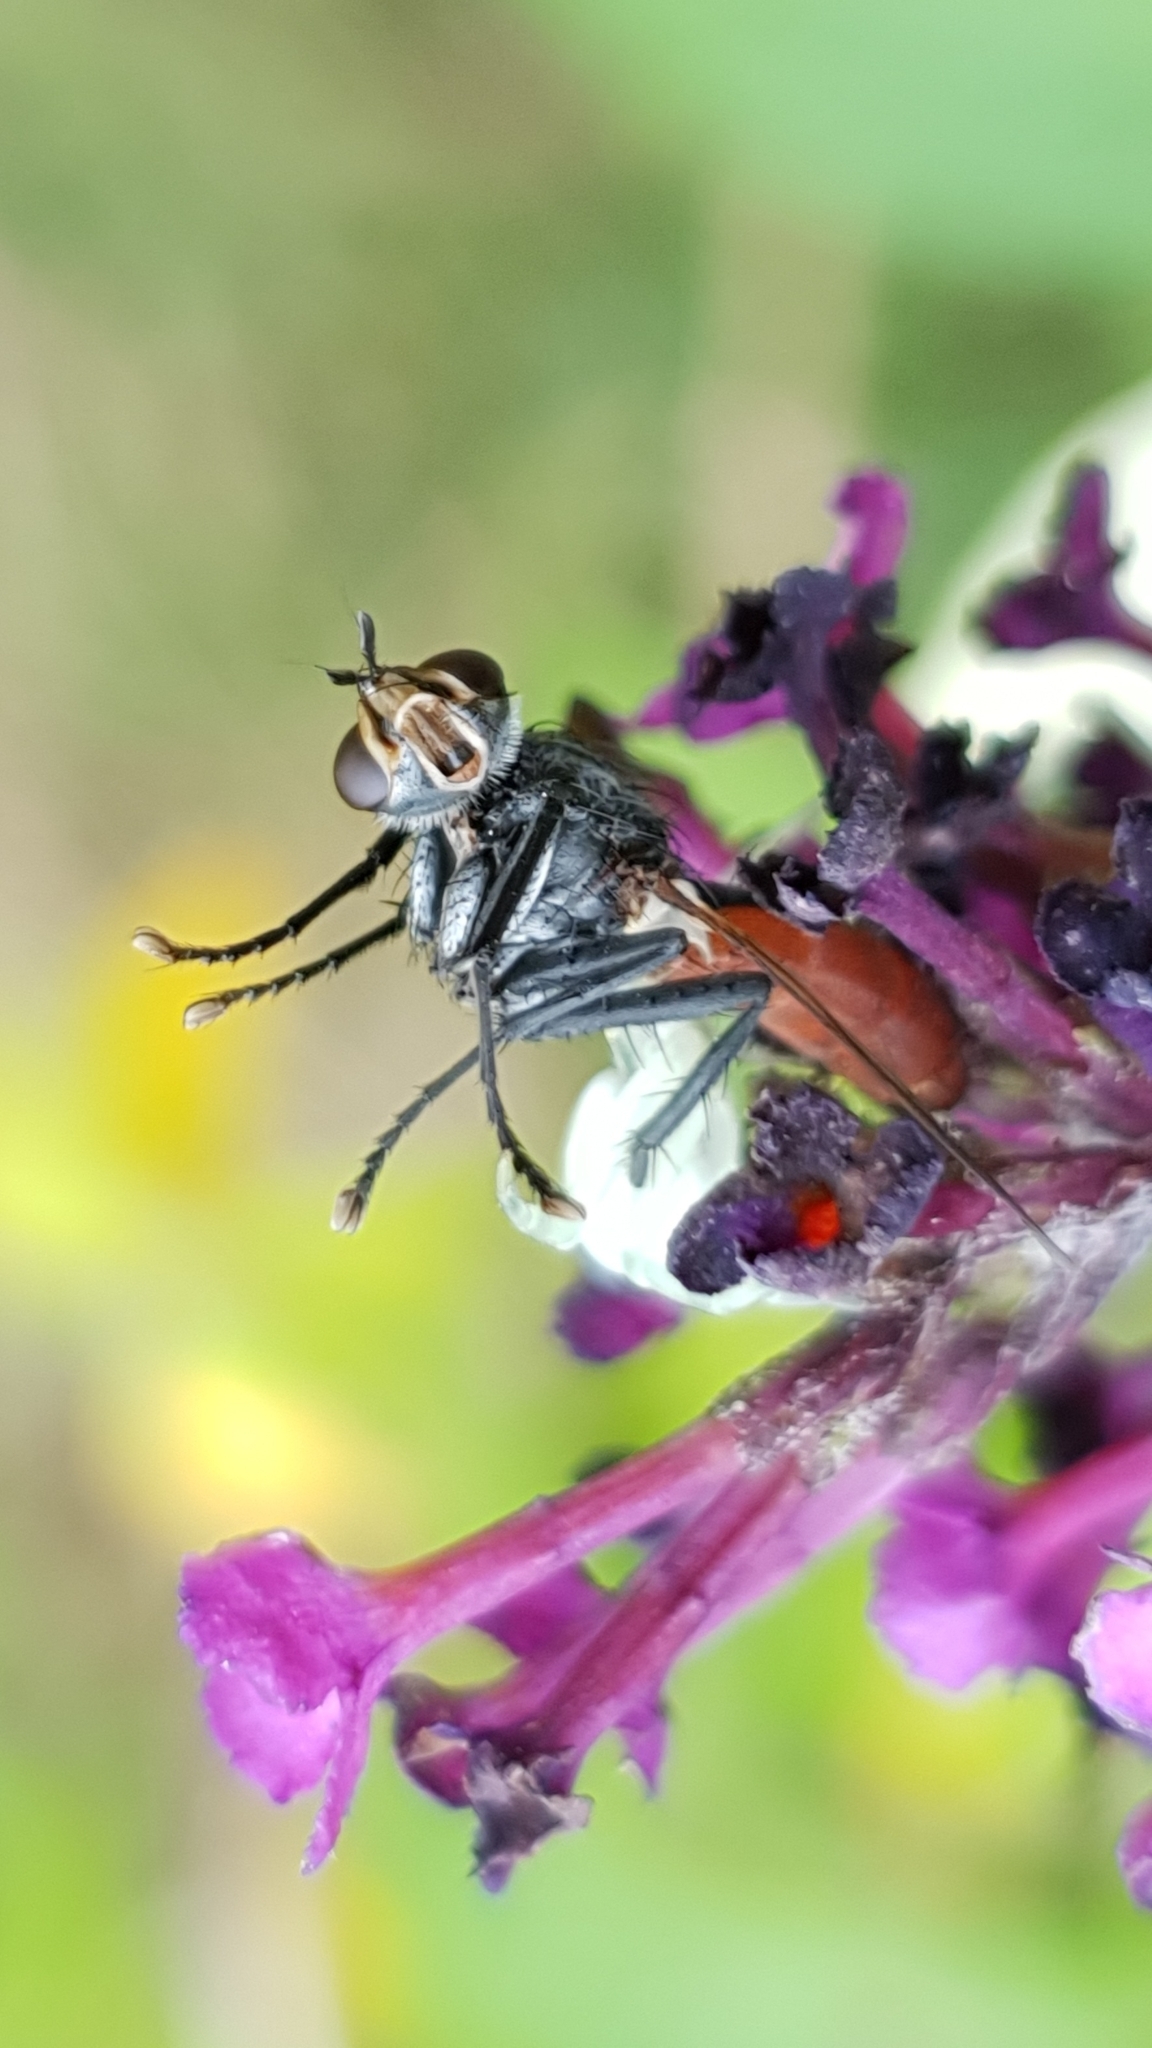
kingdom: Animalia
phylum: Arthropoda
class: Insecta
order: Diptera
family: Tachinidae
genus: Cylindromyia
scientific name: Cylindromyia bicolor
